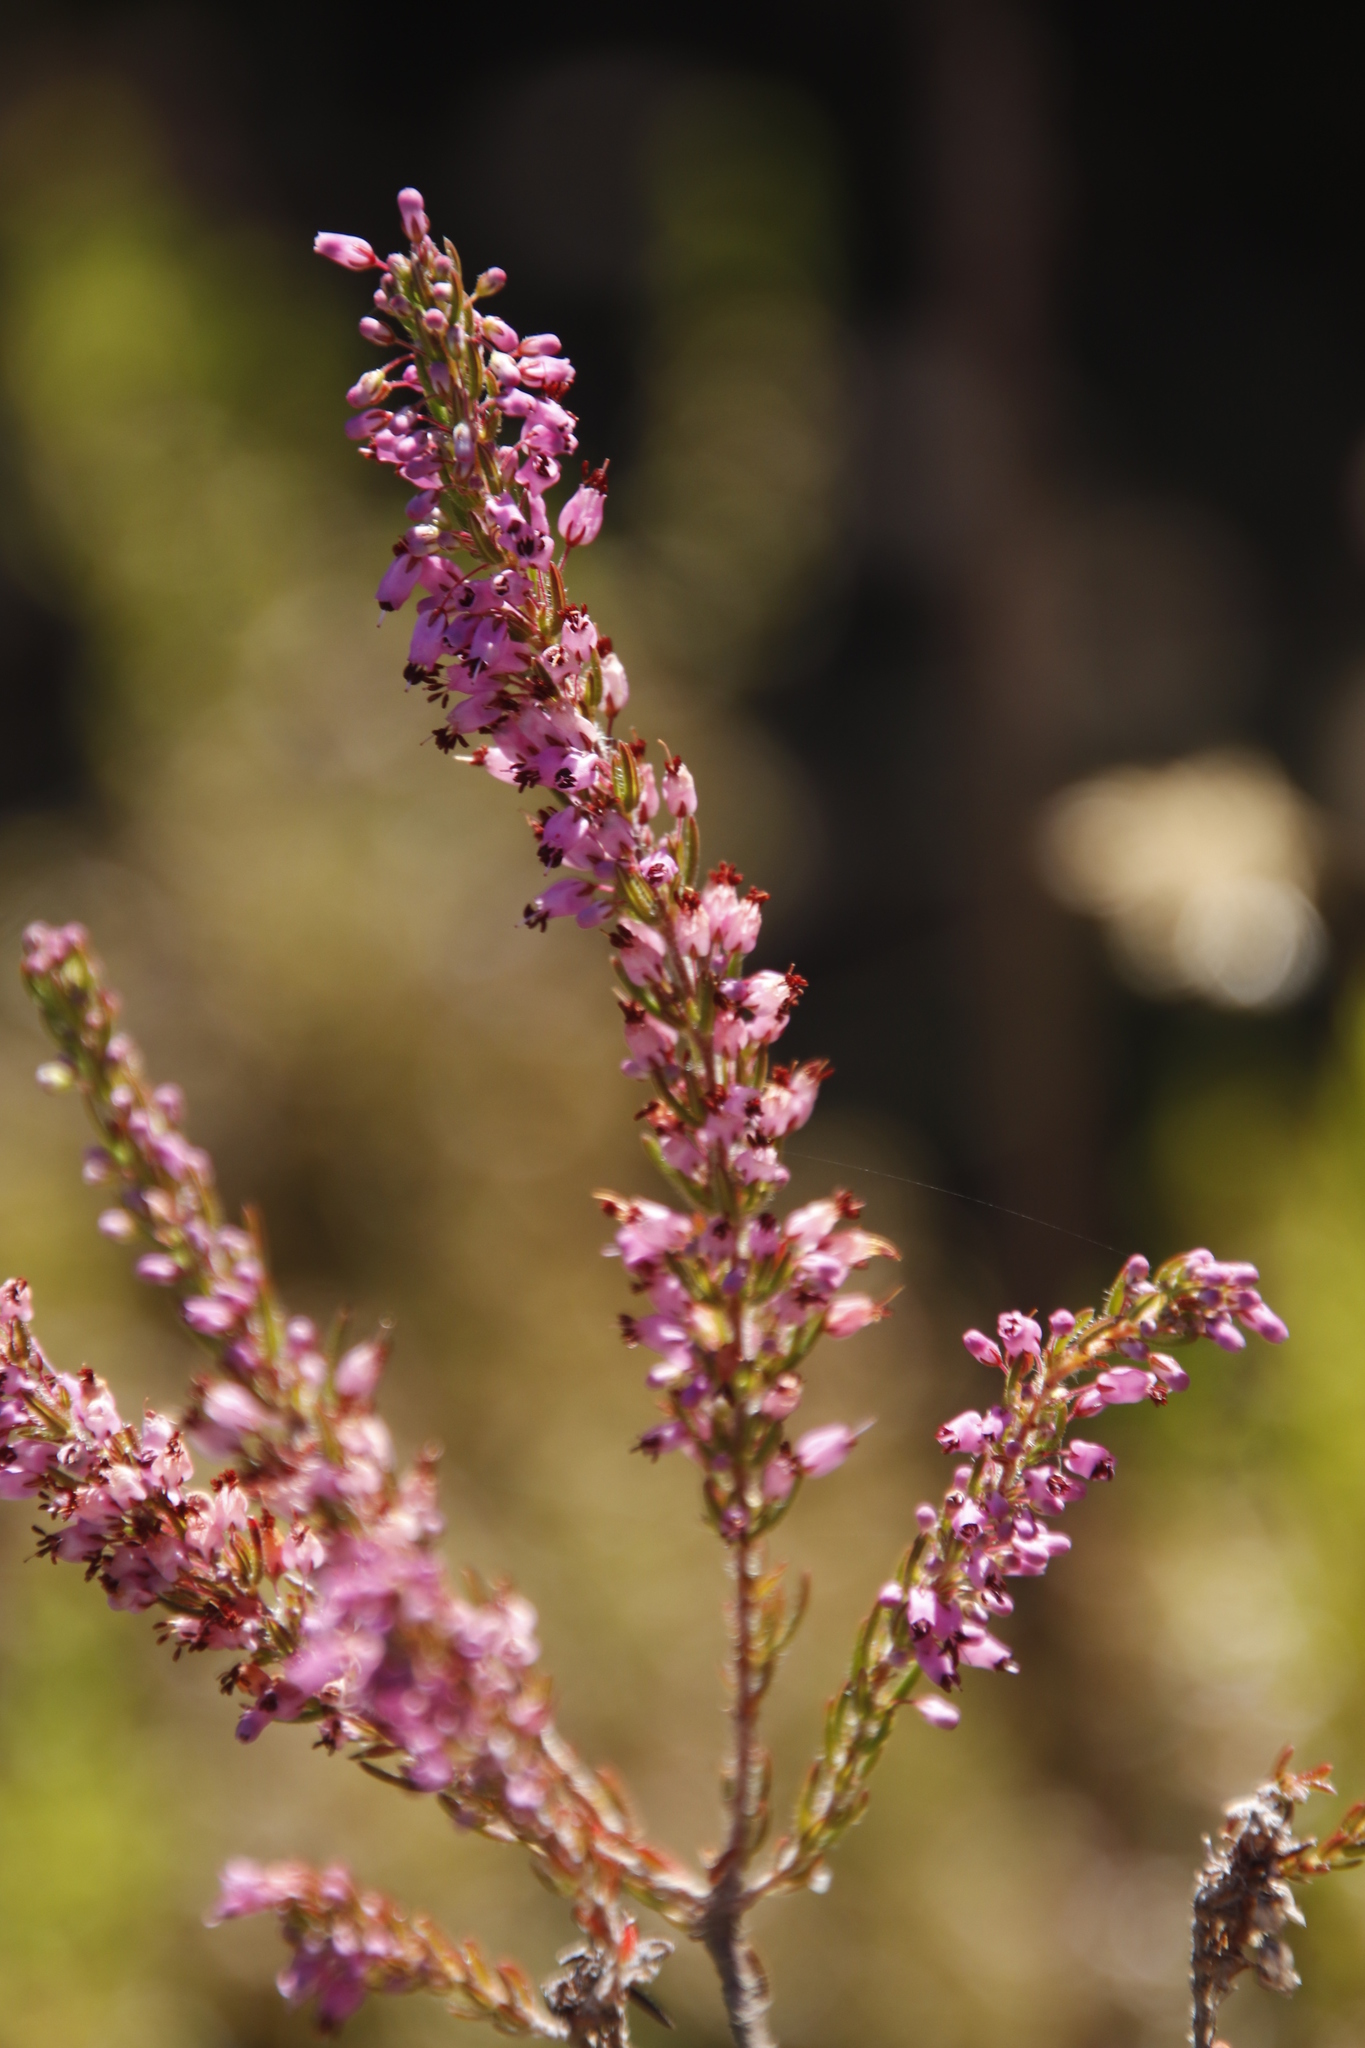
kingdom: Plantae
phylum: Tracheophyta
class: Magnoliopsida
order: Ericales
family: Ericaceae
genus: Erica
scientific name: Erica nudiflora
